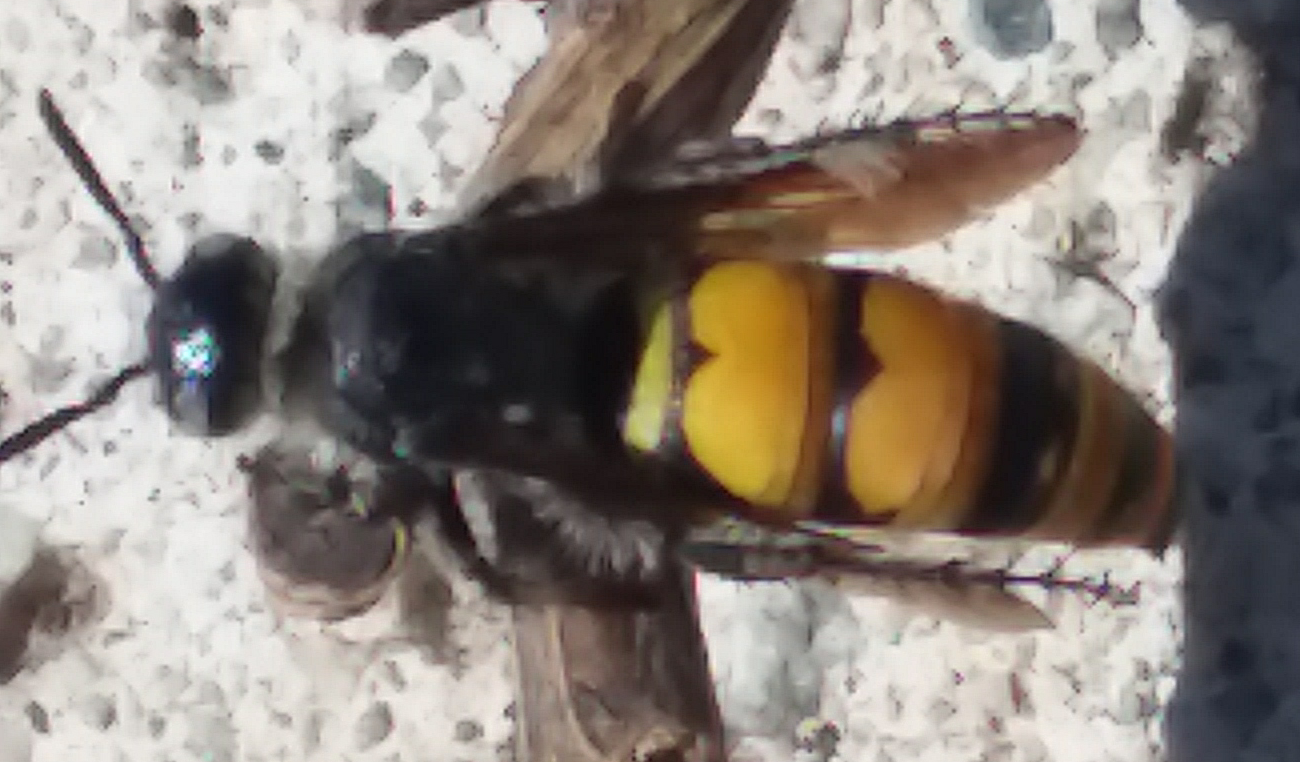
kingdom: Animalia
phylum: Arthropoda
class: Insecta
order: Hymenoptera
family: Scoliidae
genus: Dielis
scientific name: Dielis tolteca
